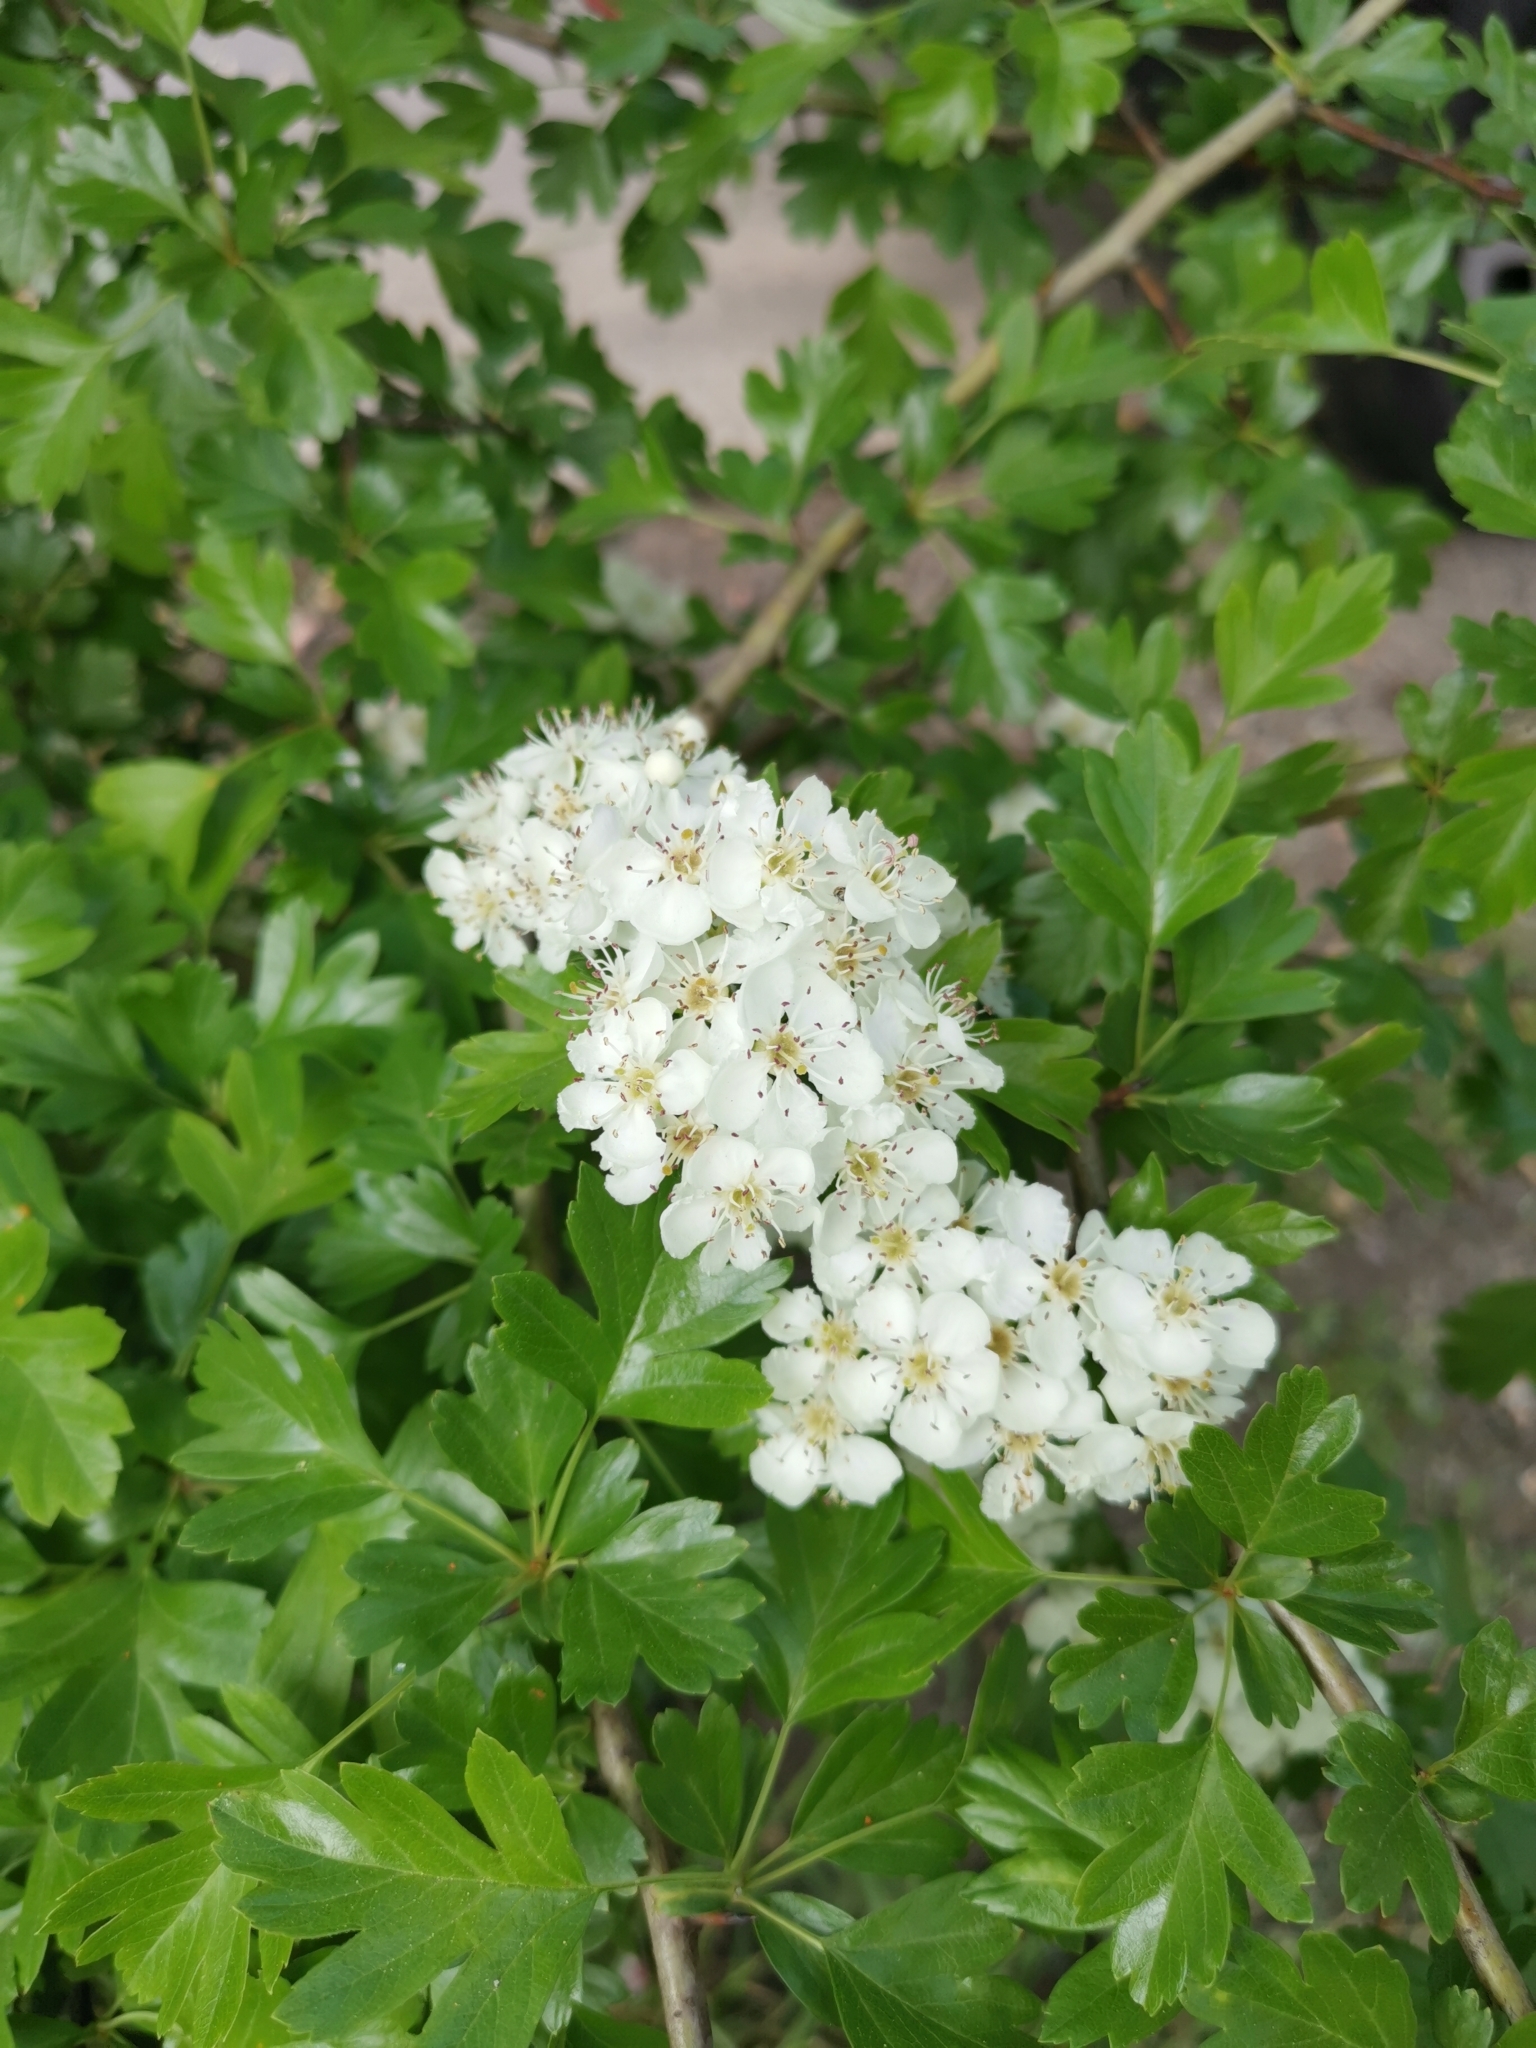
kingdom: Plantae
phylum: Tracheophyta
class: Magnoliopsida
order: Rosales
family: Rosaceae
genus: Crataegus
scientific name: Crataegus monogyna
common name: Hawthorn
